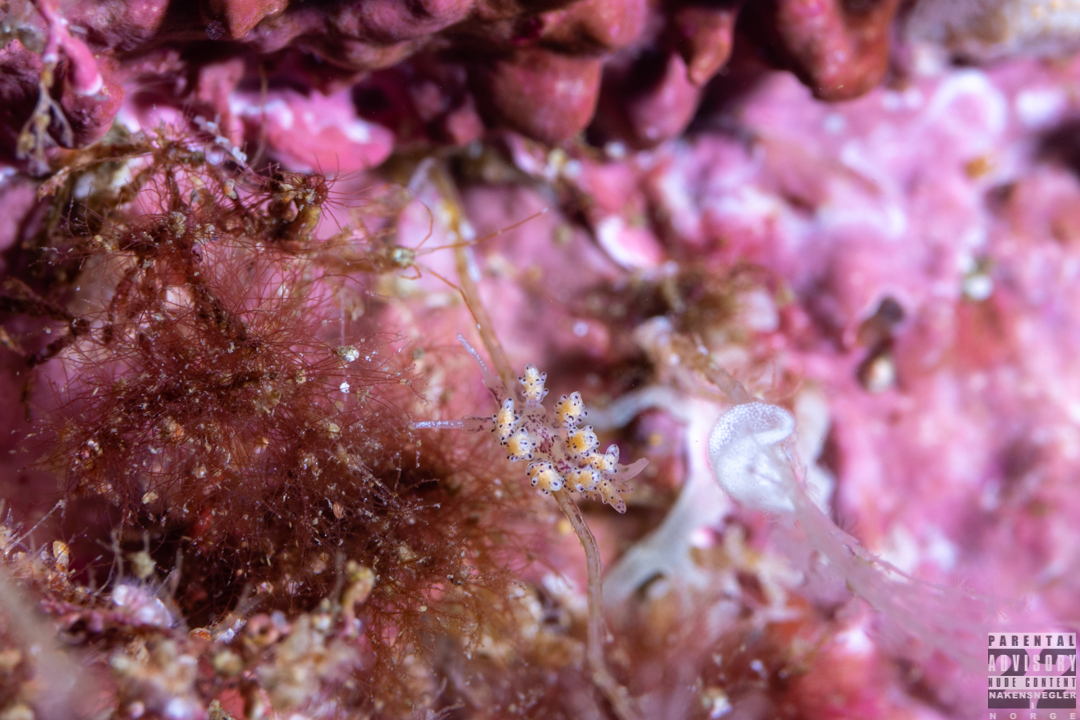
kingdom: Animalia
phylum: Mollusca
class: Gastropoda
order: Nudibranchia
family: Dotidae
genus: Doto
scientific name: Doto dunnei
